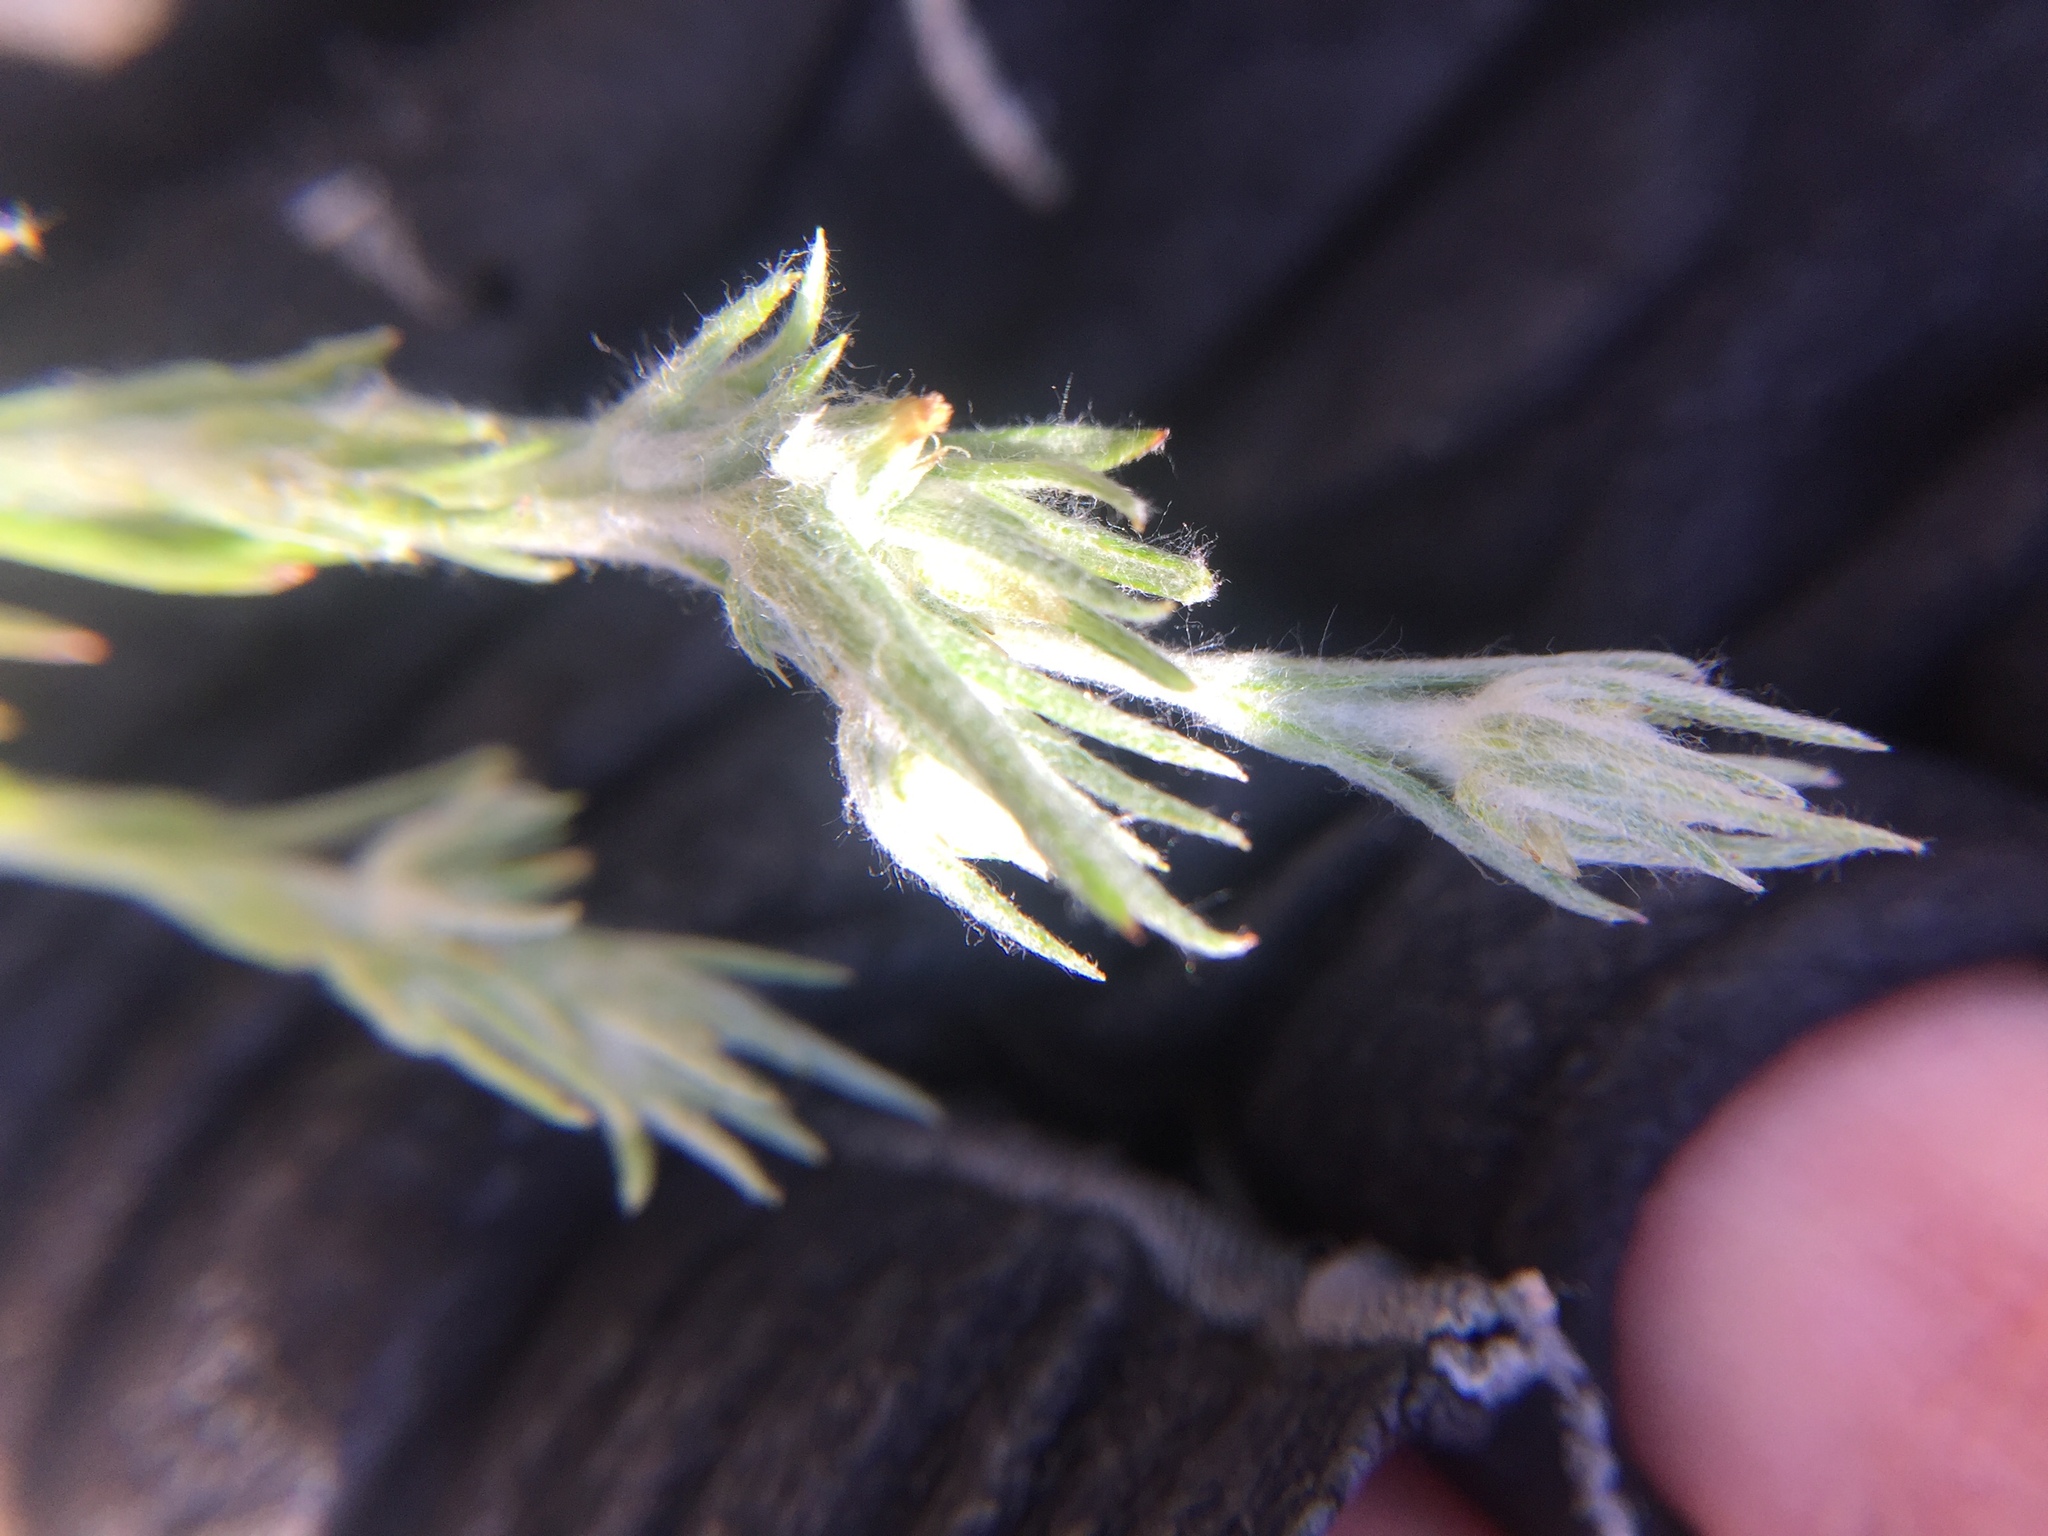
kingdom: Plantae
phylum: Tracheophyta
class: Magnoliopsida
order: Asterales
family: Asteraceae
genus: Logfia
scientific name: Logfia gallica
